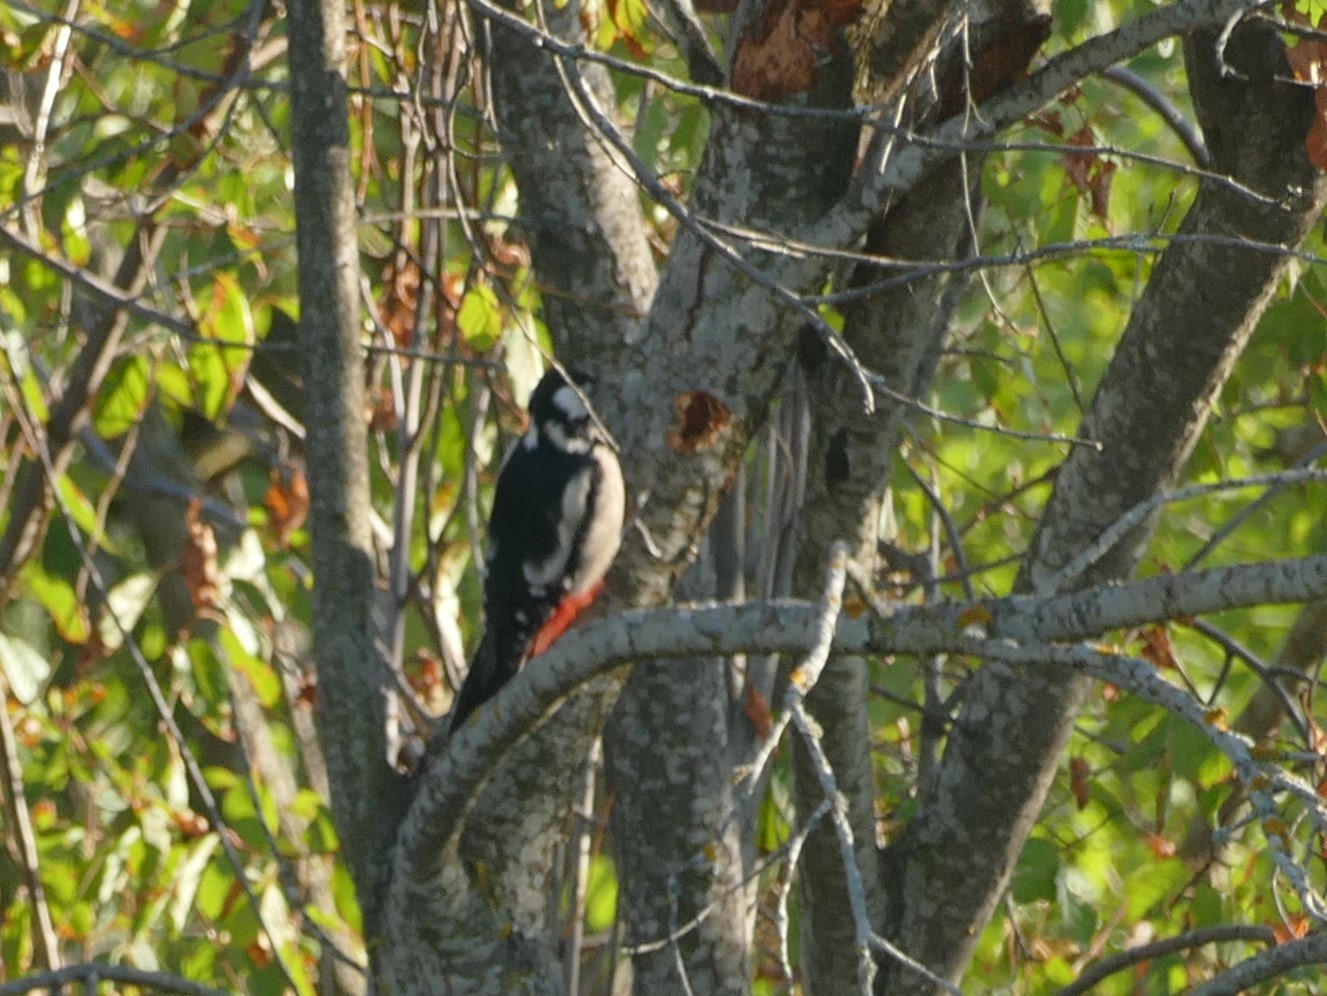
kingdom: Animalia
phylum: Chordata
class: Aves
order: Piciformes
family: Picidae
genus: Dendrocopos
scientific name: Dendrocopos major
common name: Great spotted woodpecker
